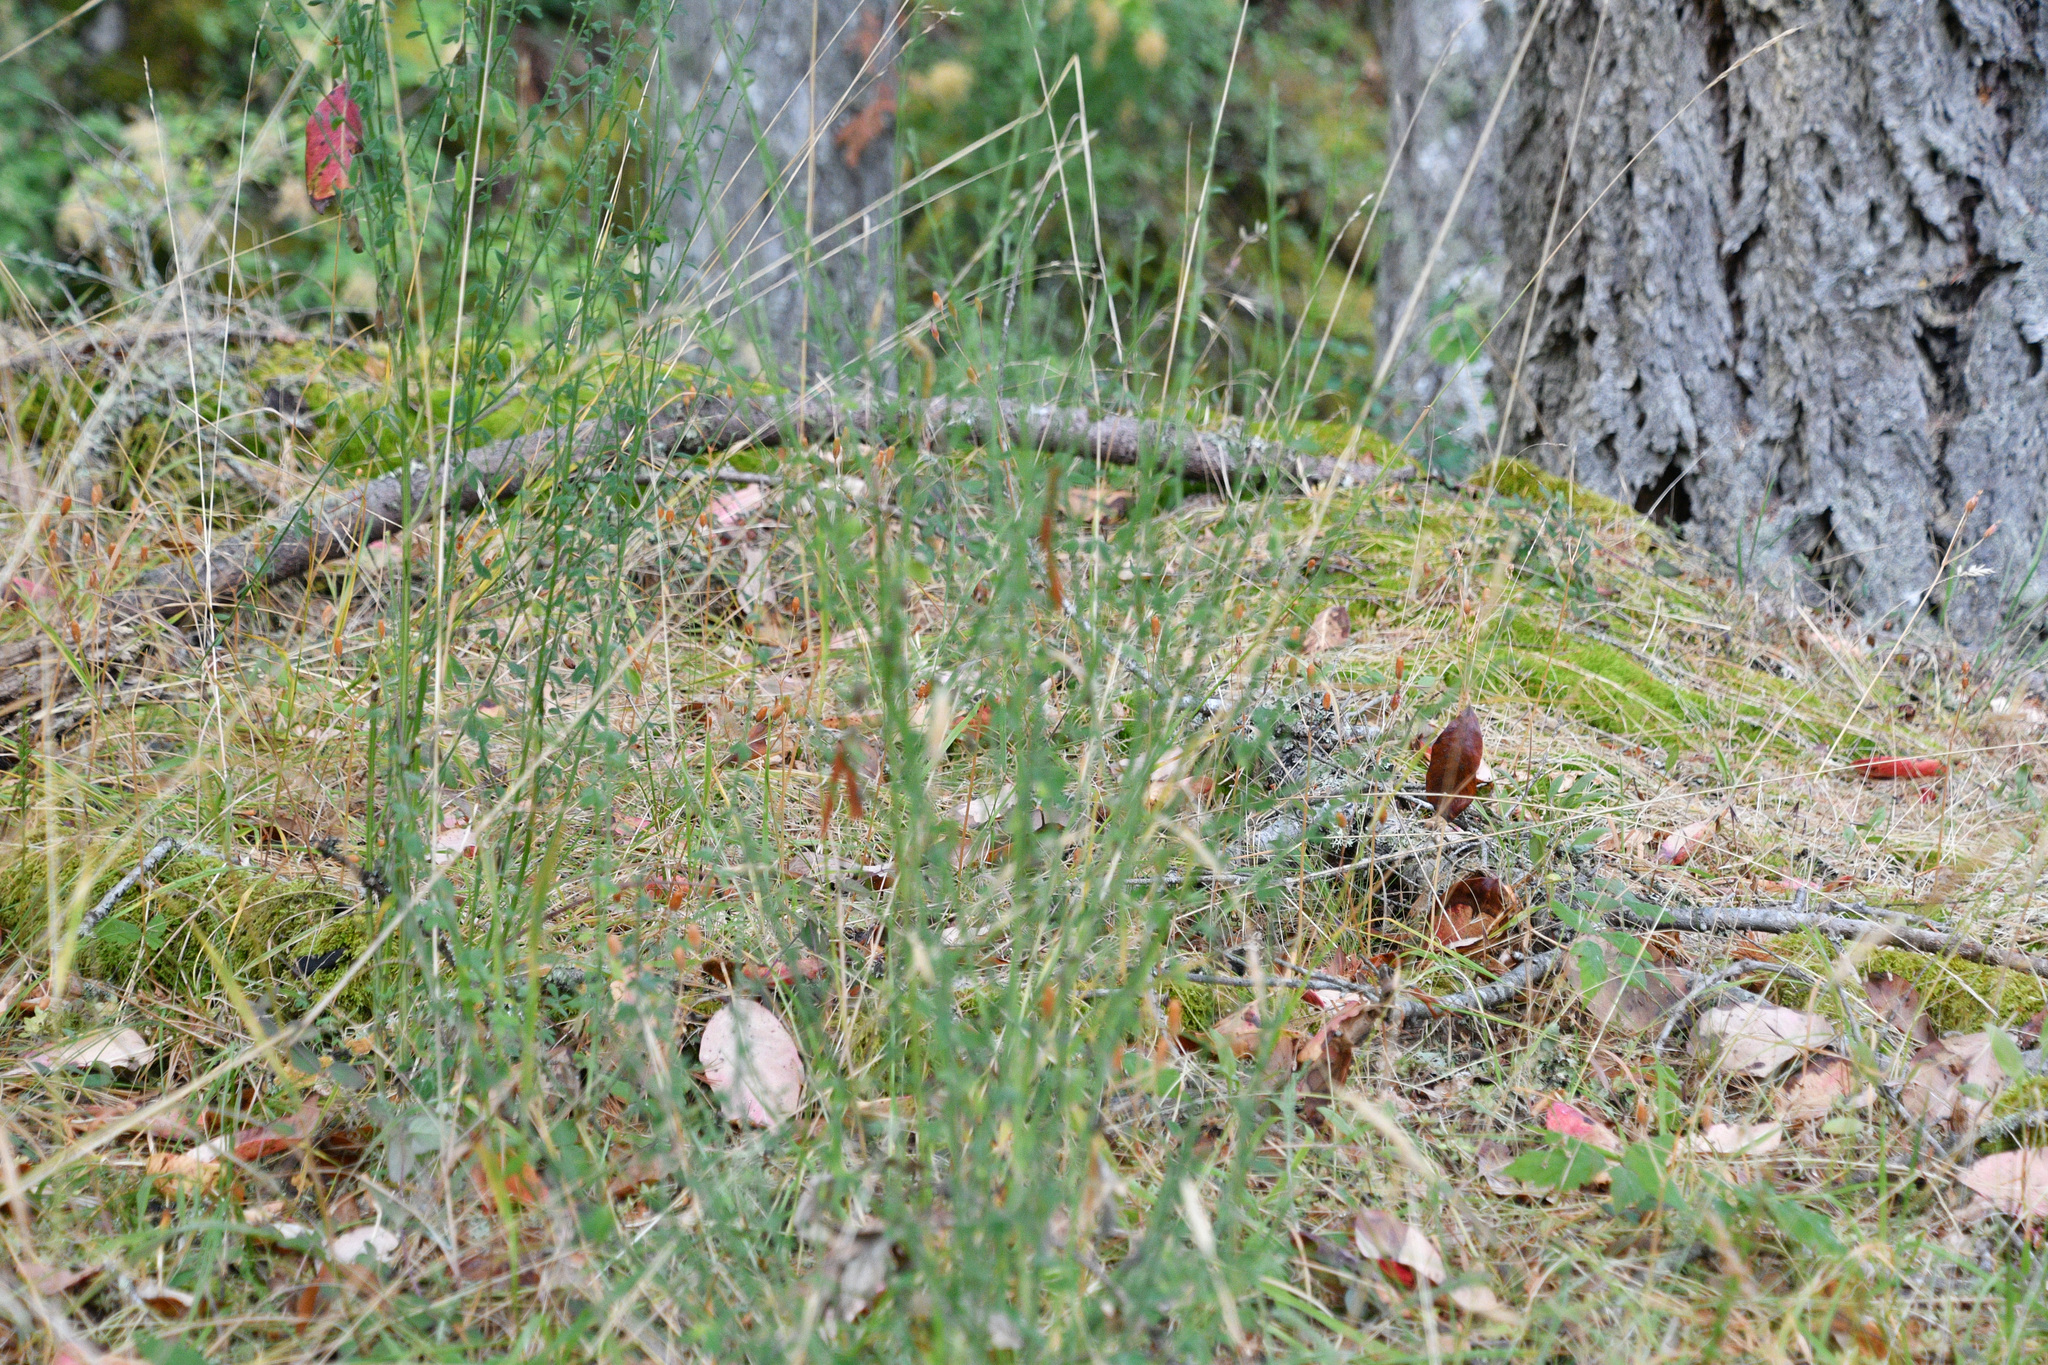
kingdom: Plantae
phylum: Tracheophyta
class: Magnoliopsida
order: Fabales
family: Fabaceae
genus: Cytisus
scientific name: Cytisus scoparius
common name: Scotch broom
